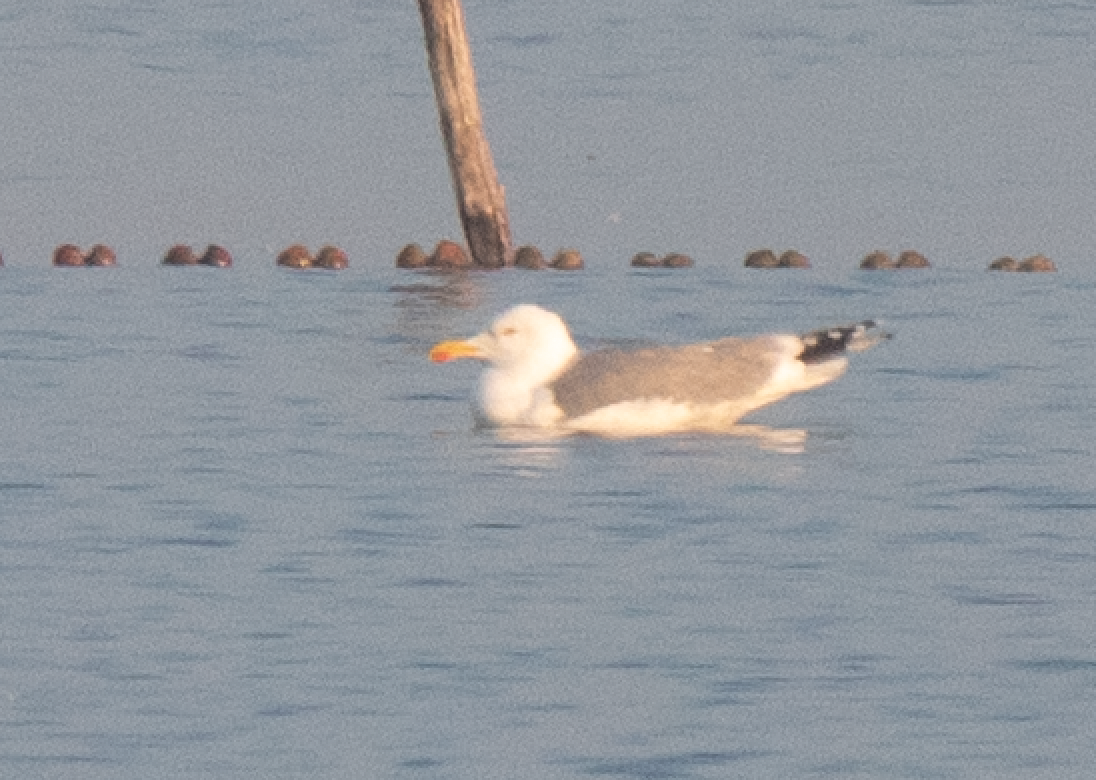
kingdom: Animalia
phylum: Chordata
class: Aves
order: Charadriiformes
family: Laridae
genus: Larus
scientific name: Larus michahellis
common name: Yellow-legged gull
